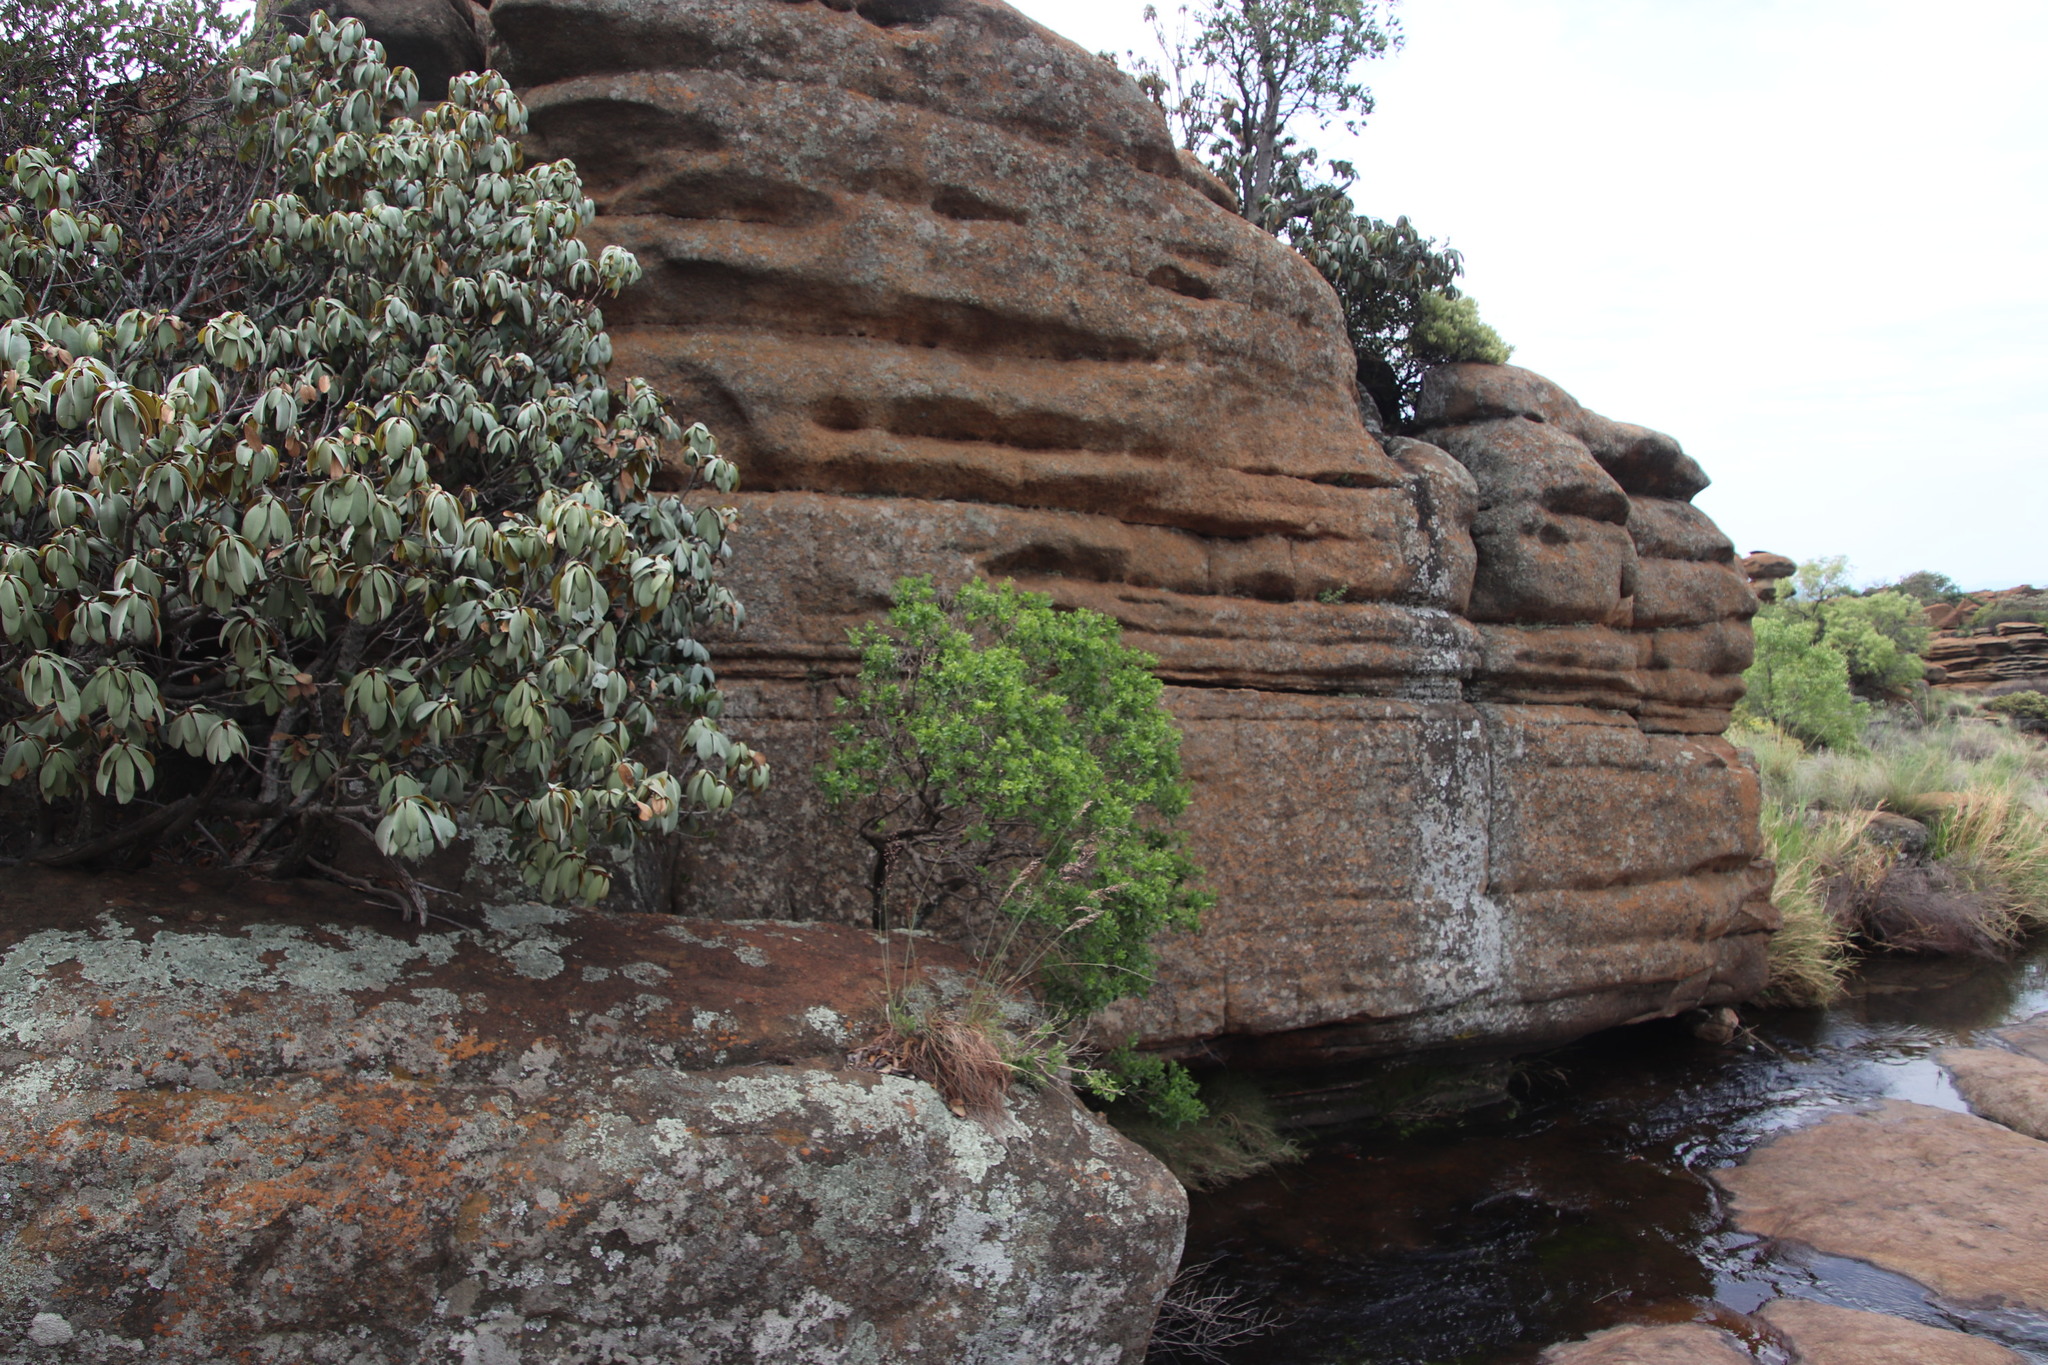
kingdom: Plantae
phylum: Tracheophyta
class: Magnoliopsida
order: Lamiales
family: Stilbaceae
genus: Nuxia
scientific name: Nuxia congesta
